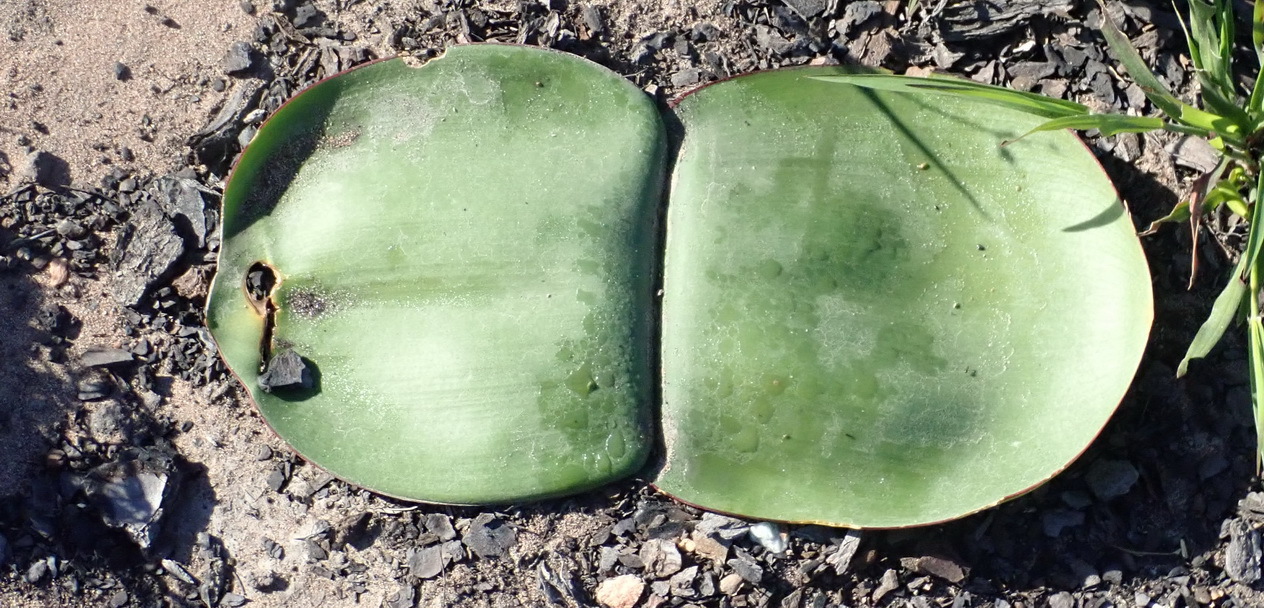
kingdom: Plantae
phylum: Tracheophyta
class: Liliopsida
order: Asparagales
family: Amaryllidaceae
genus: Haemanthus
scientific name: Haemanthus sanguineus
